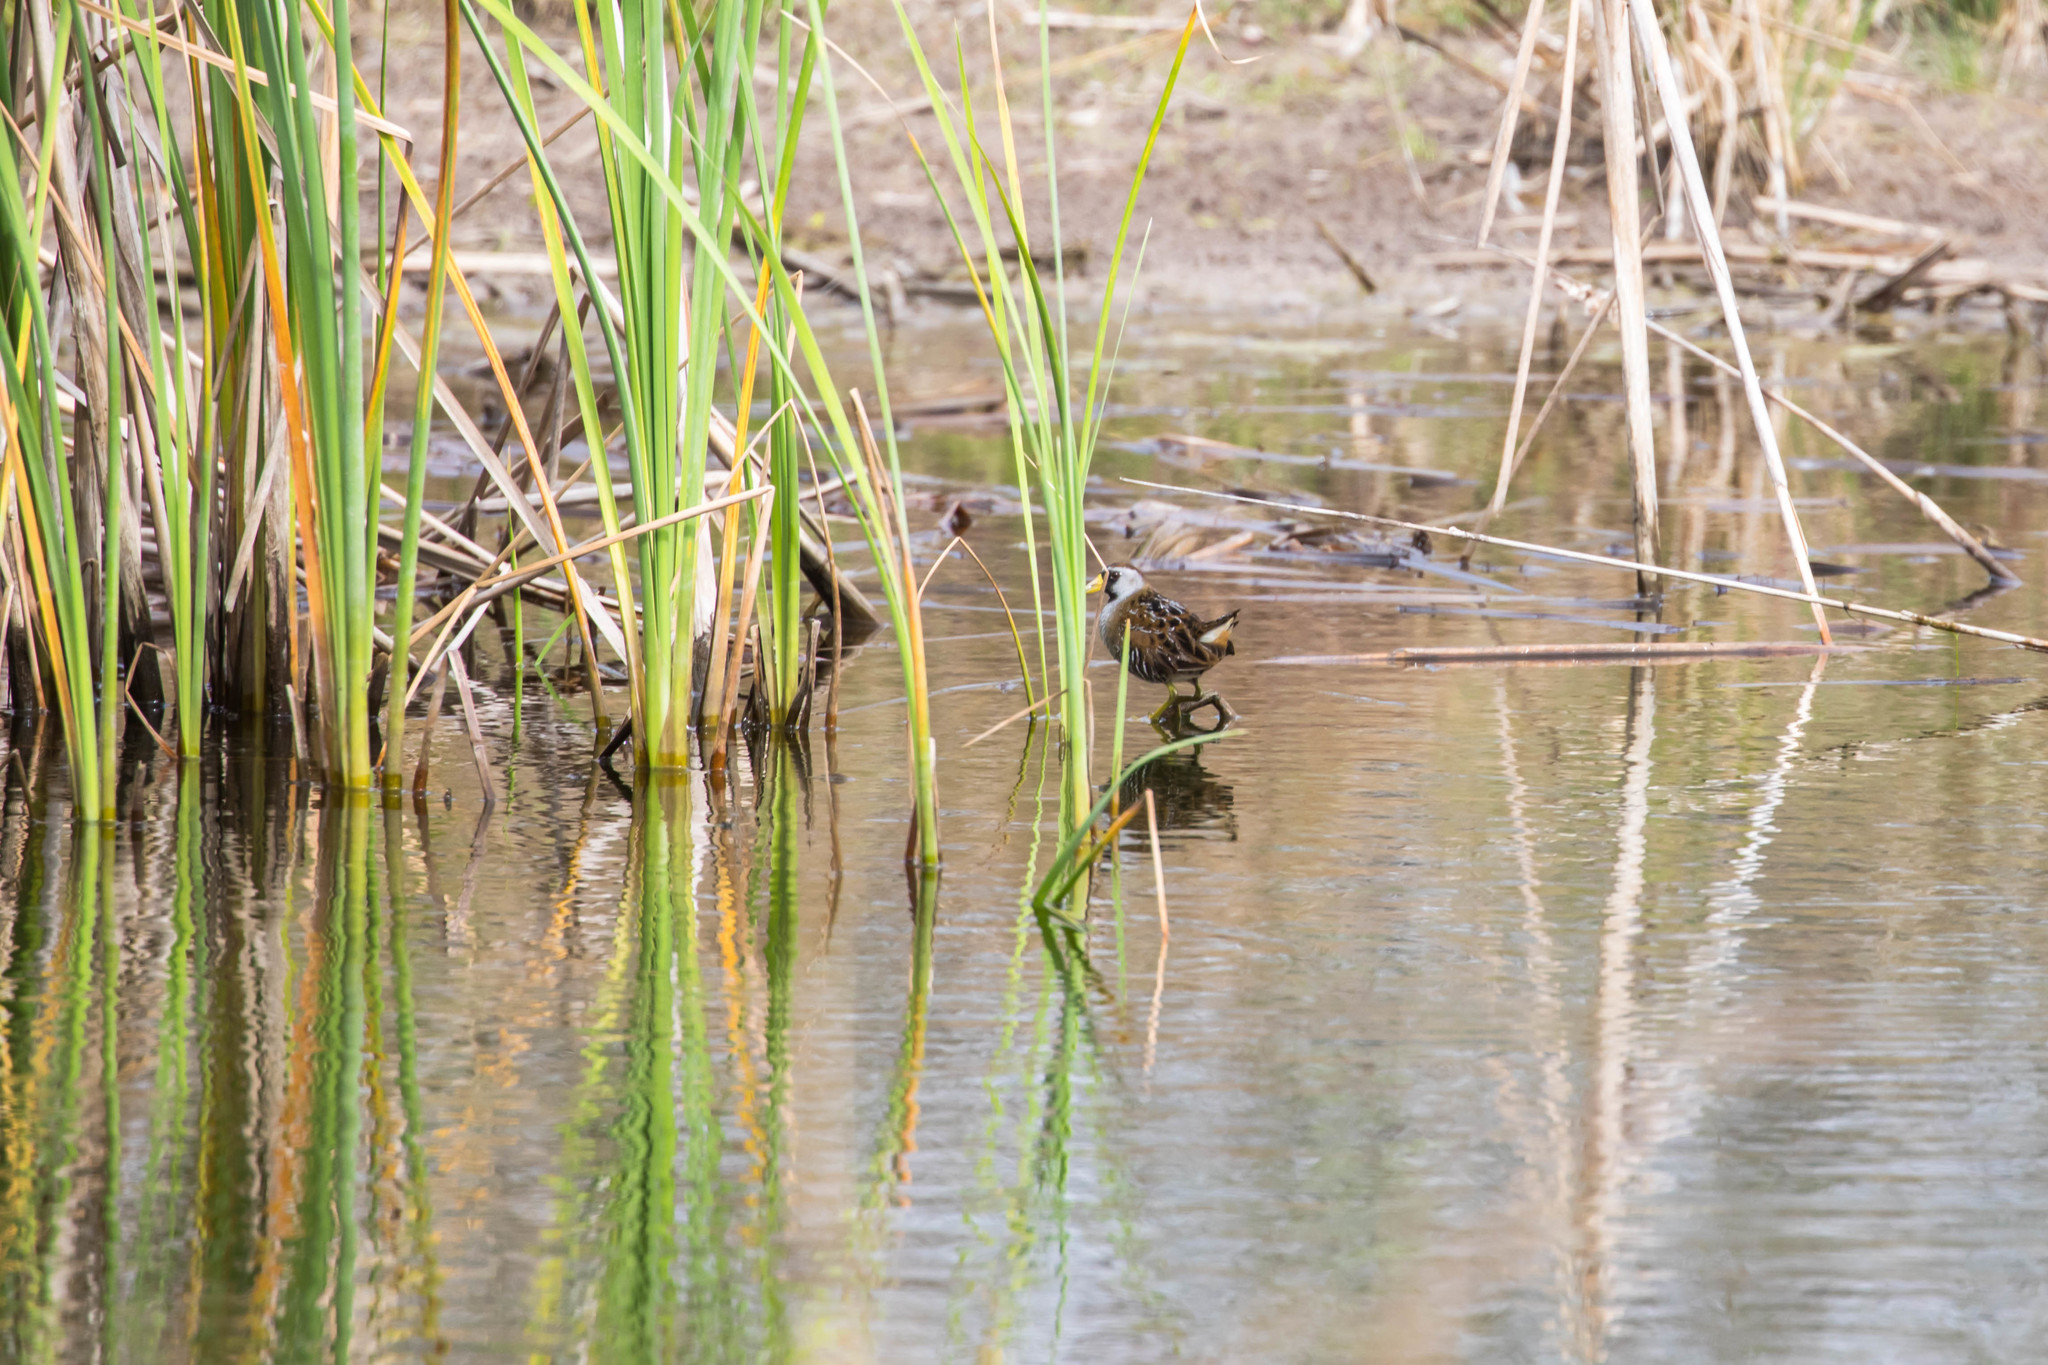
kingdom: Animalia
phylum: Chordata
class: Aves
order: Gruiformes
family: Rallidae
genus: Porzana
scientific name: Porzana carolina
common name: Sora
